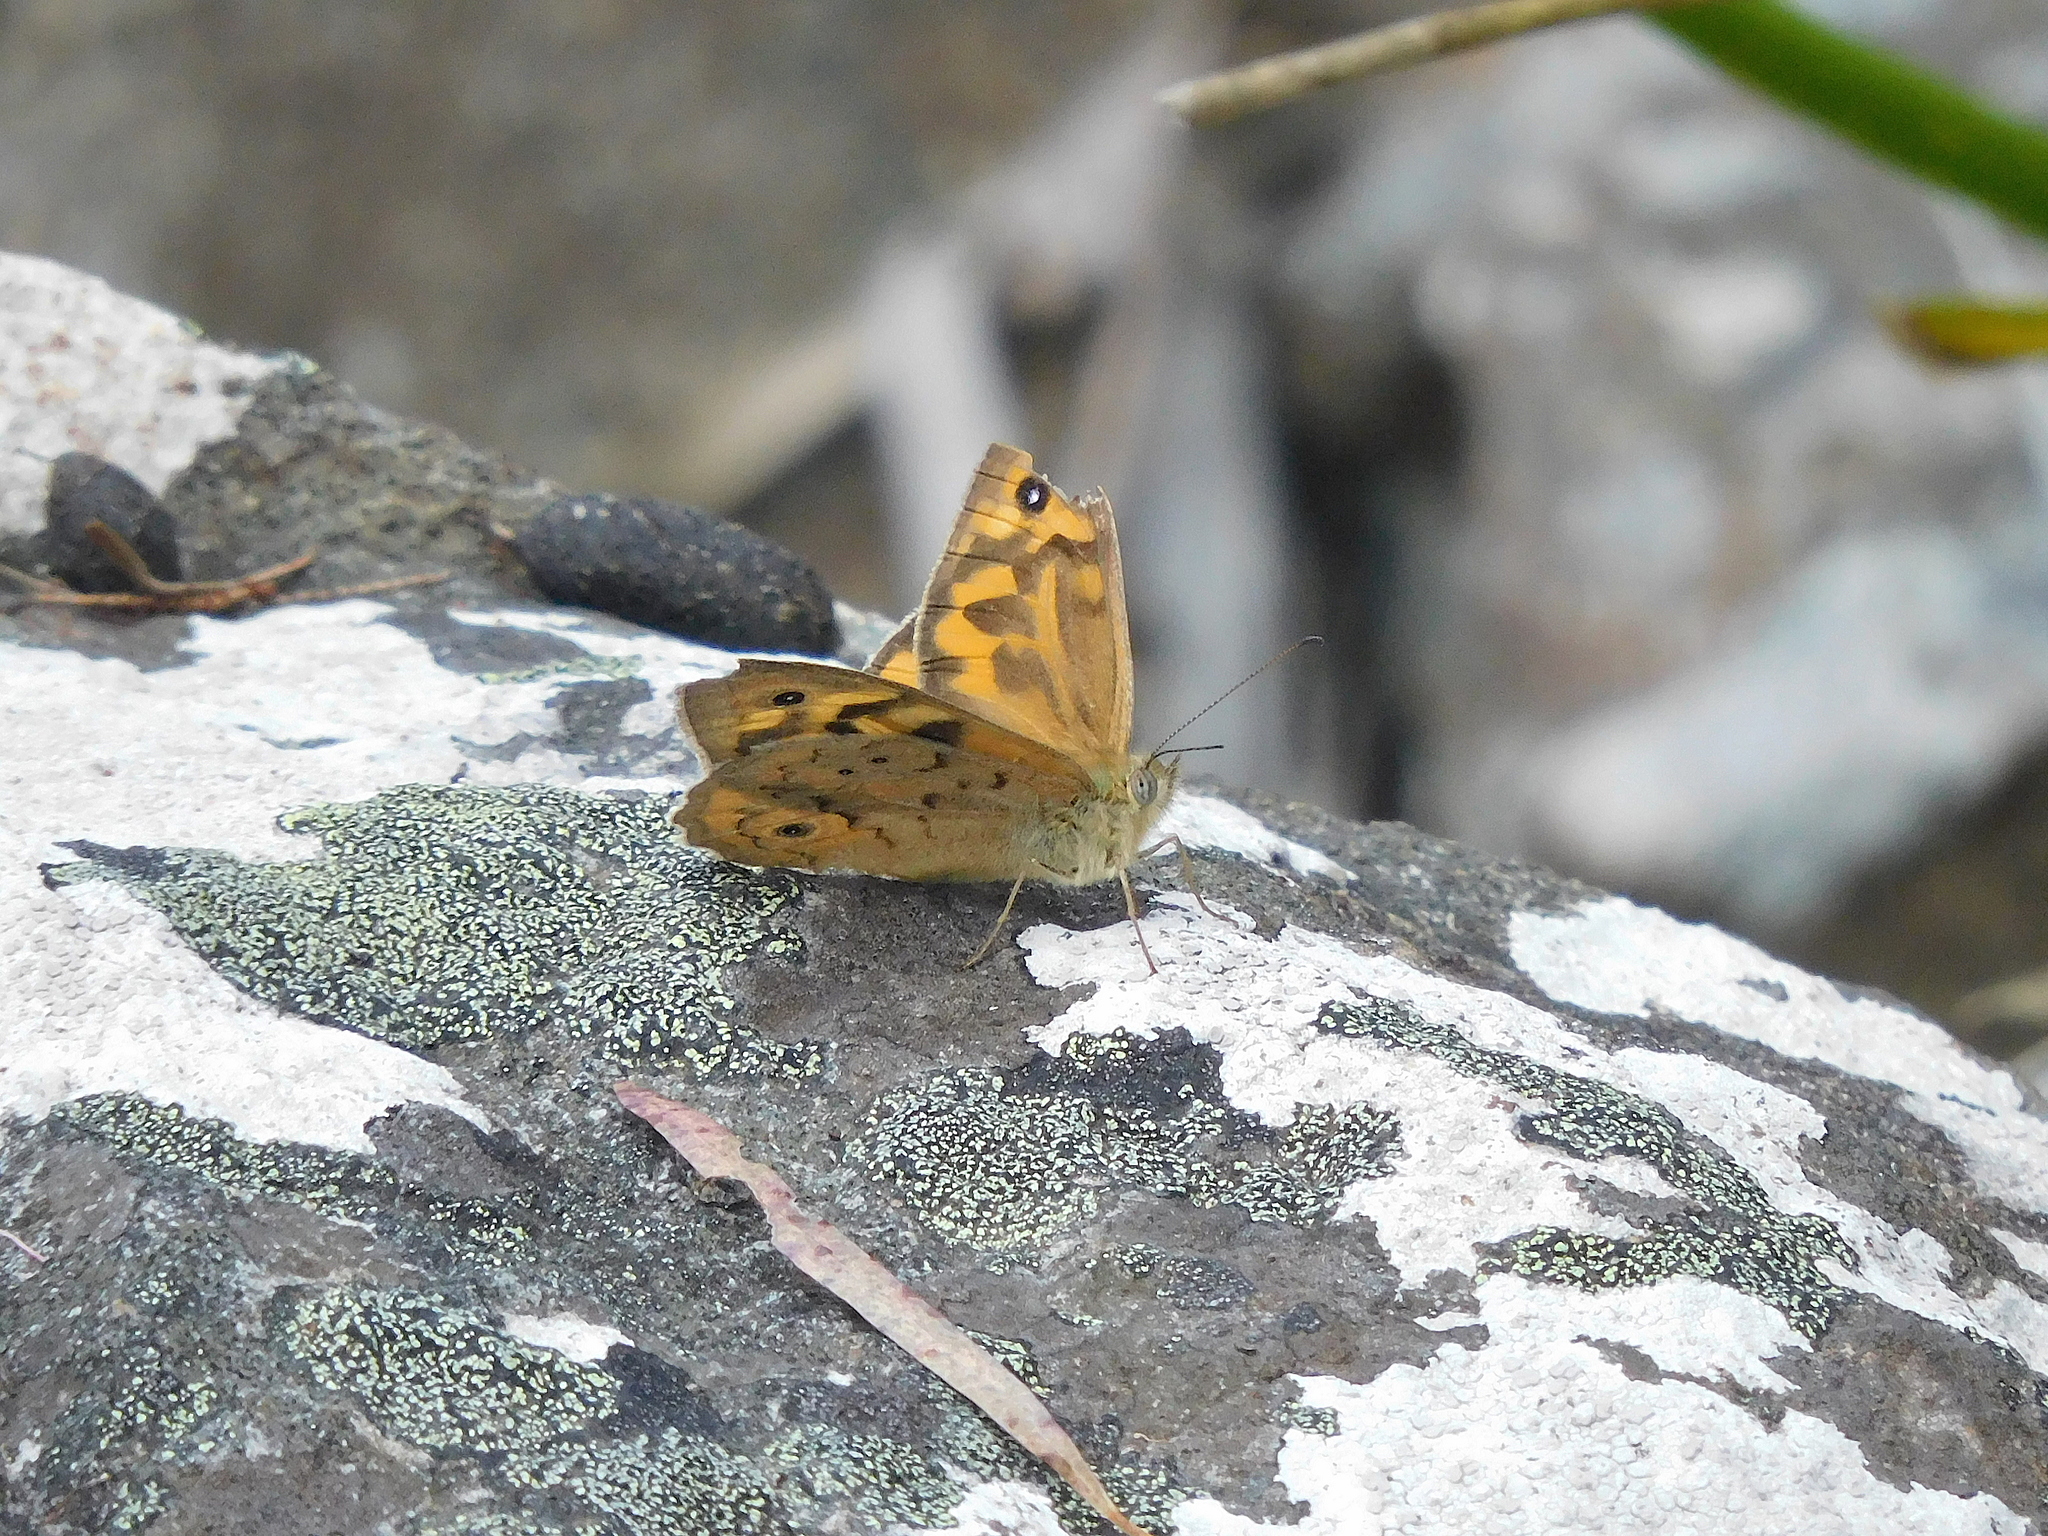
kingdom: Animalia
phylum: Arthropoda
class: Insecta
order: Lepidoptera
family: Nymphalidae
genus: Heteronympha
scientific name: Heteronympha merope
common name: Common brown
